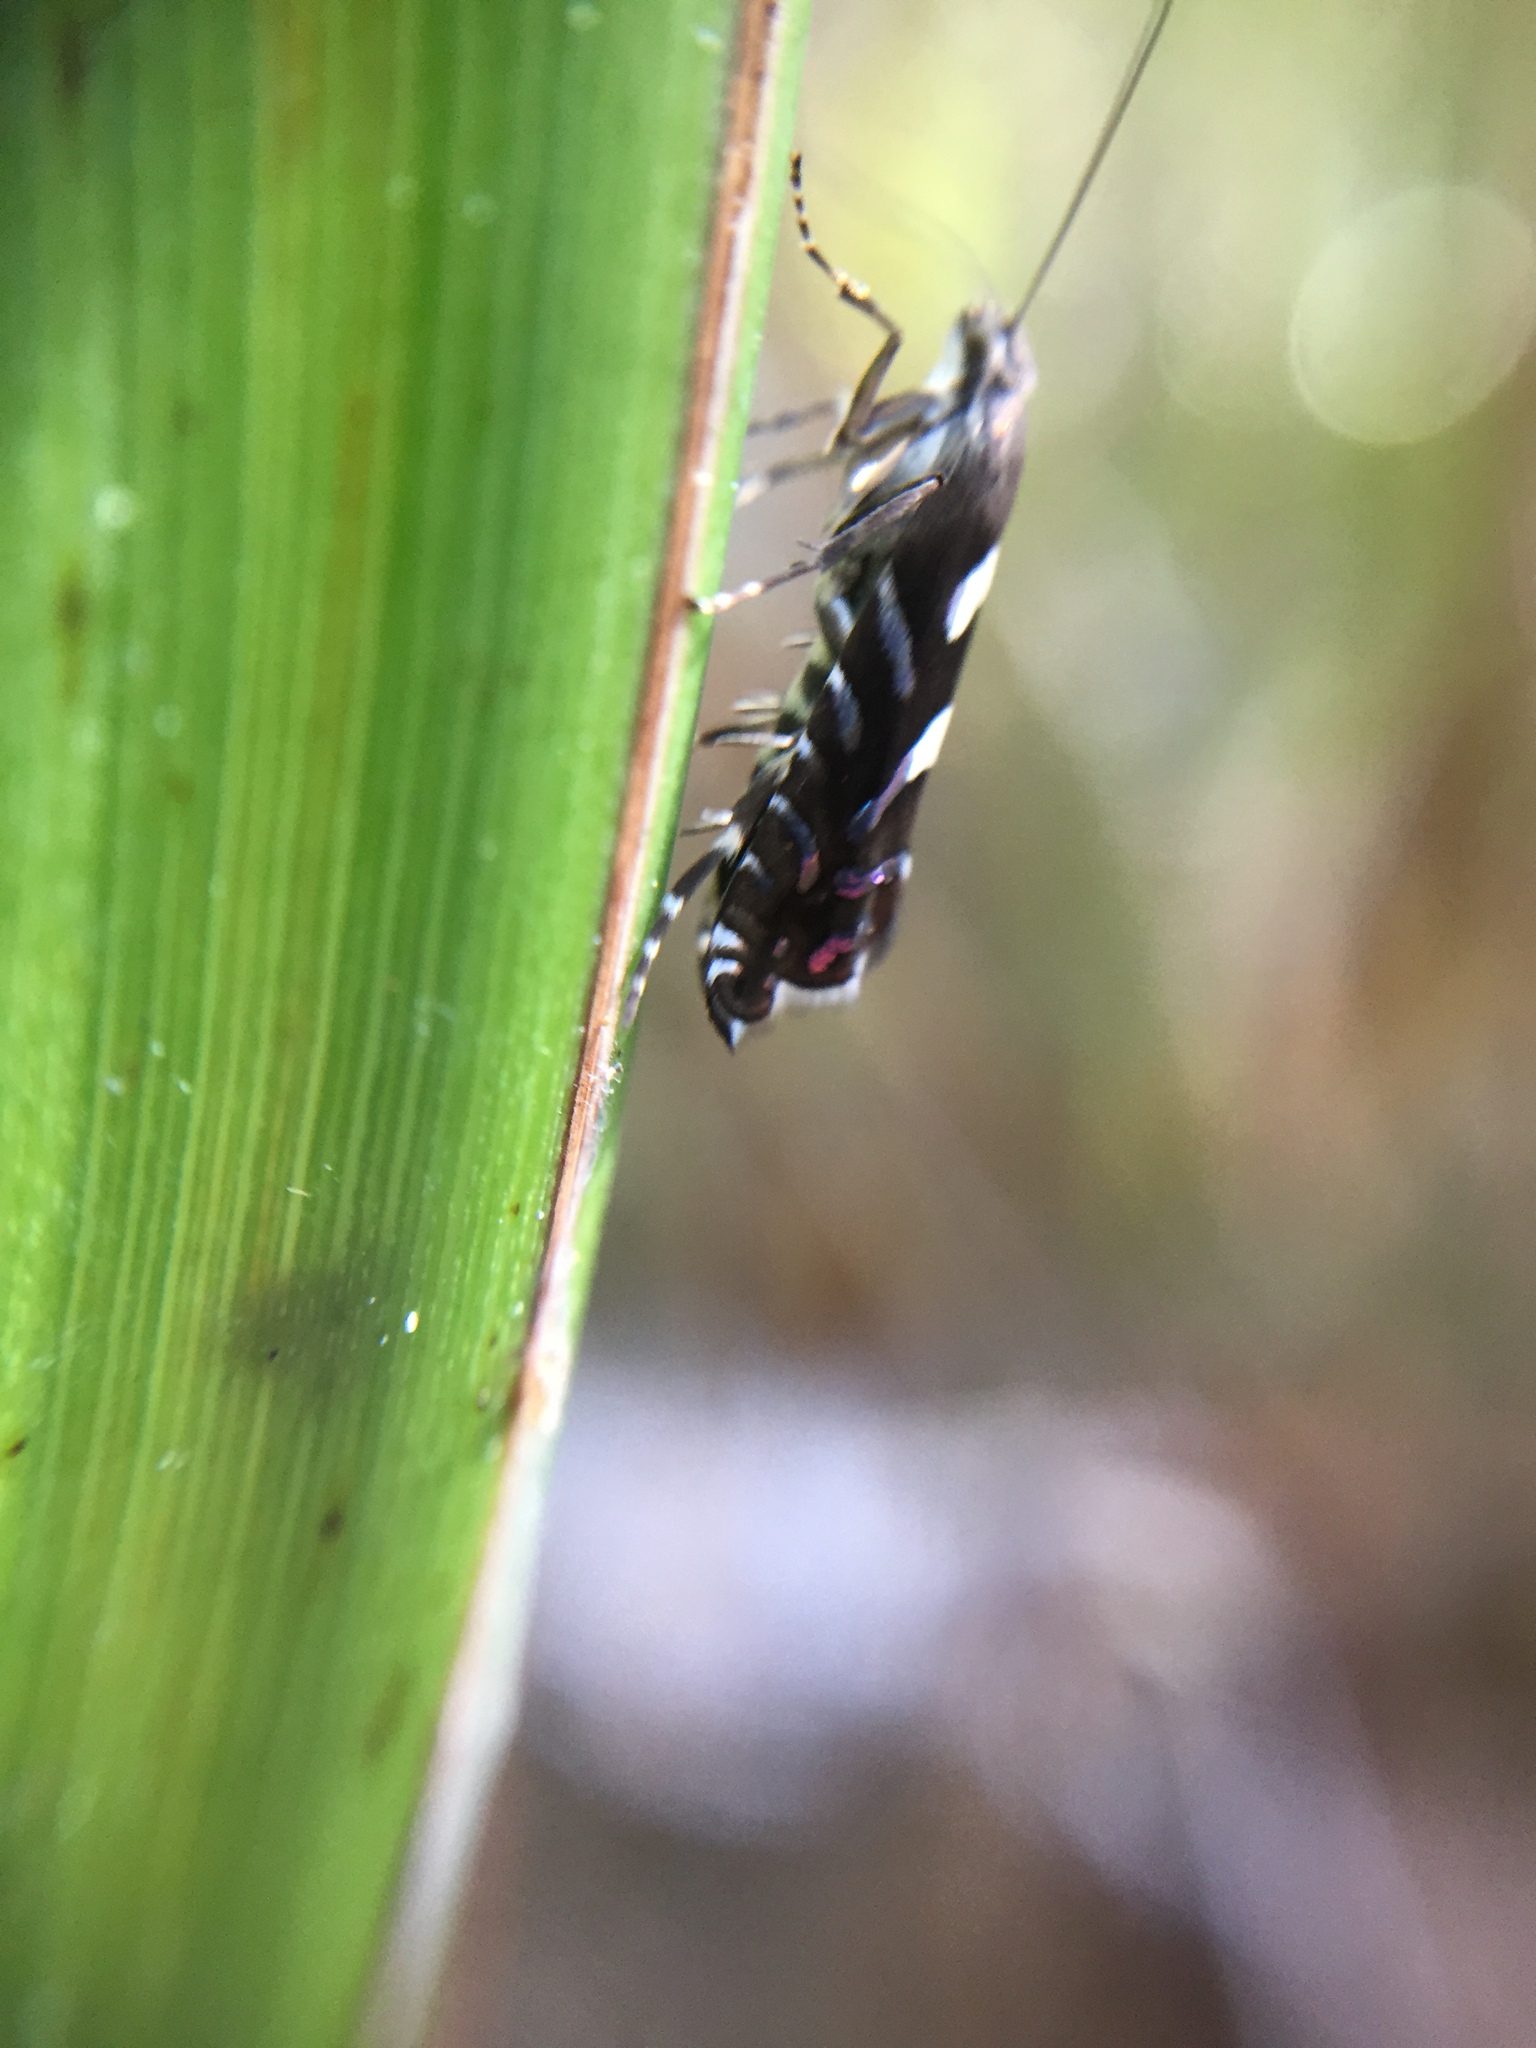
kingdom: Animalia
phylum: Arthropoda
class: Insecta
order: Lepidoptera
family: Glyphipterigidae
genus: Glyphipterix
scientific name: Glyphipterix dichorda
